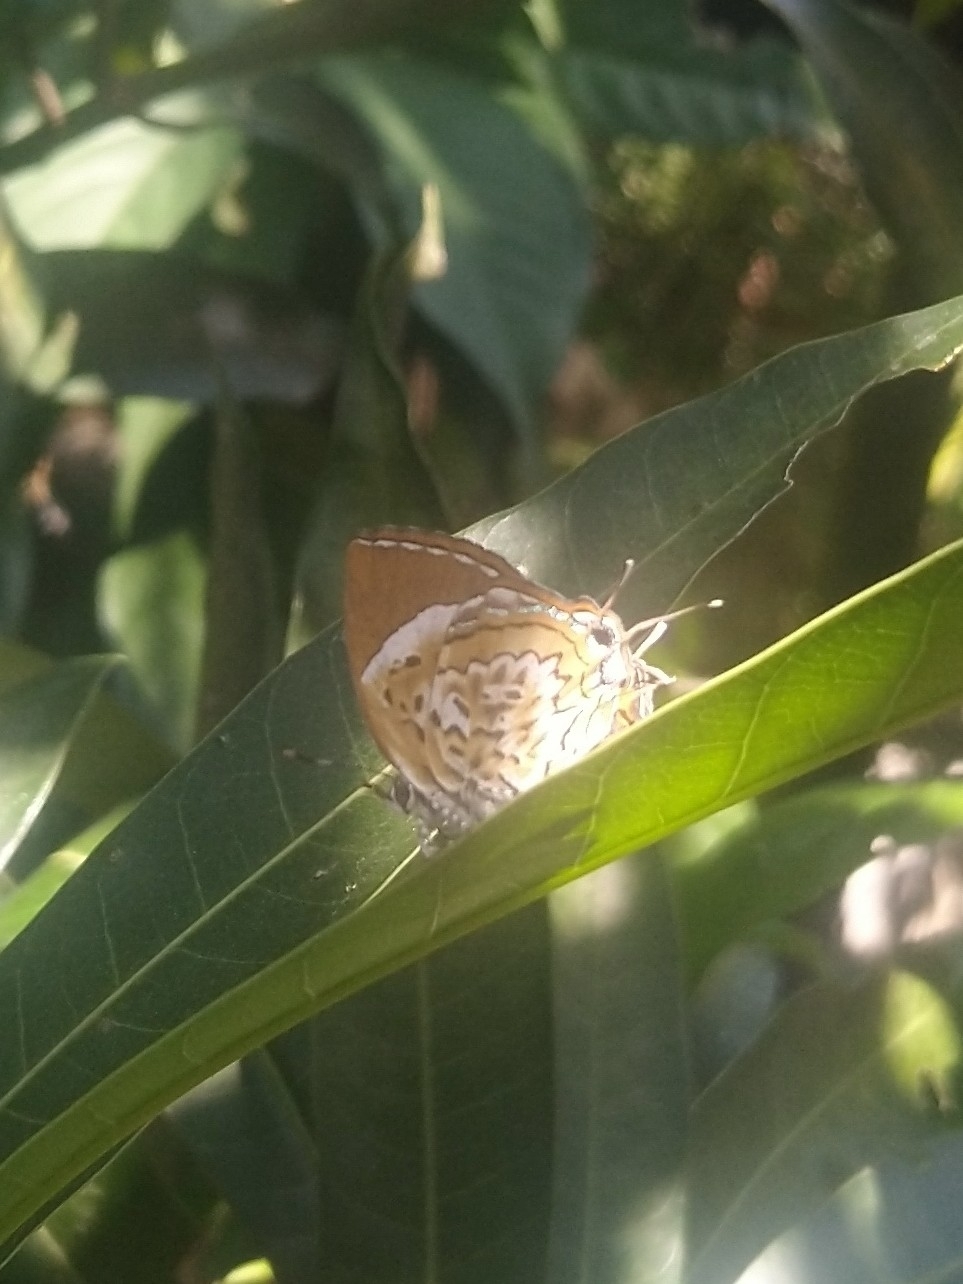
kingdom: Animalia
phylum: Arthropoda
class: Insecta
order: Lepidoptera
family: Lycaenidae
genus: Rathinda
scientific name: Rathinda amor
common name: Monkey puzzle
